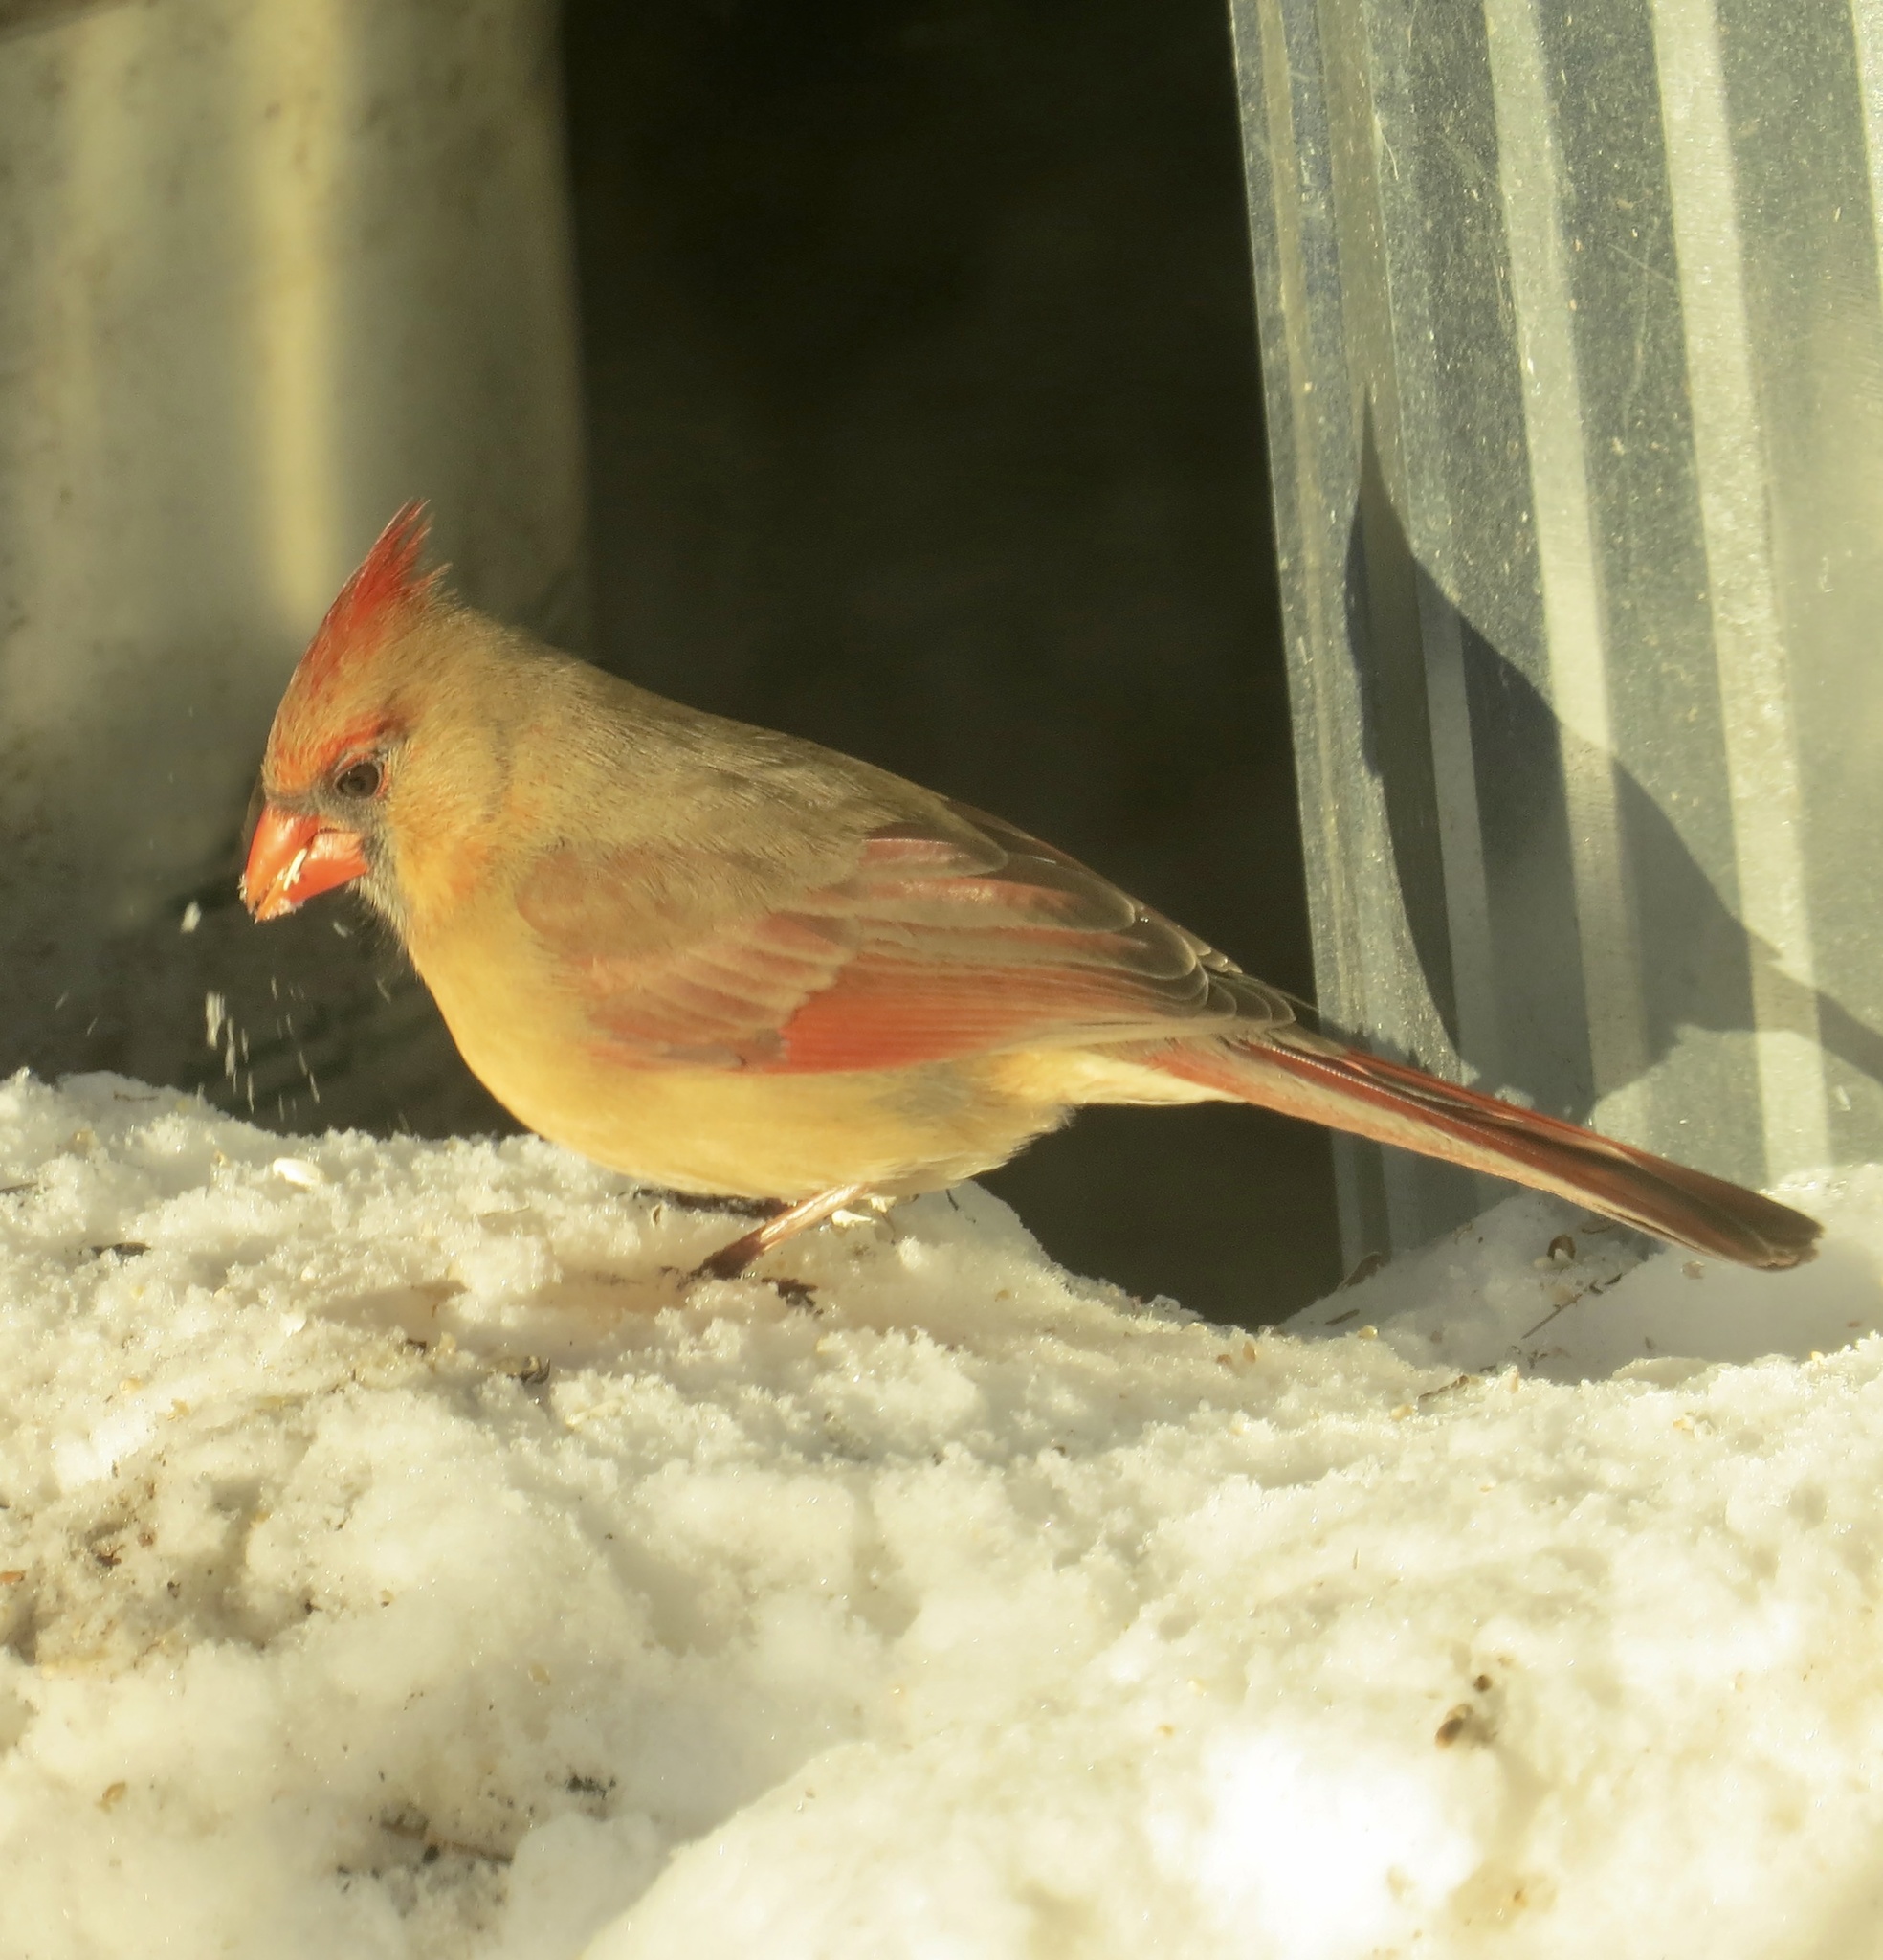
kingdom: Animalia
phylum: Chordata
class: Aves
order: Passeriformes
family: Cardinalidae
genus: Cardinalis
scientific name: Cardinalis cardinalis
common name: Northern cardinal
